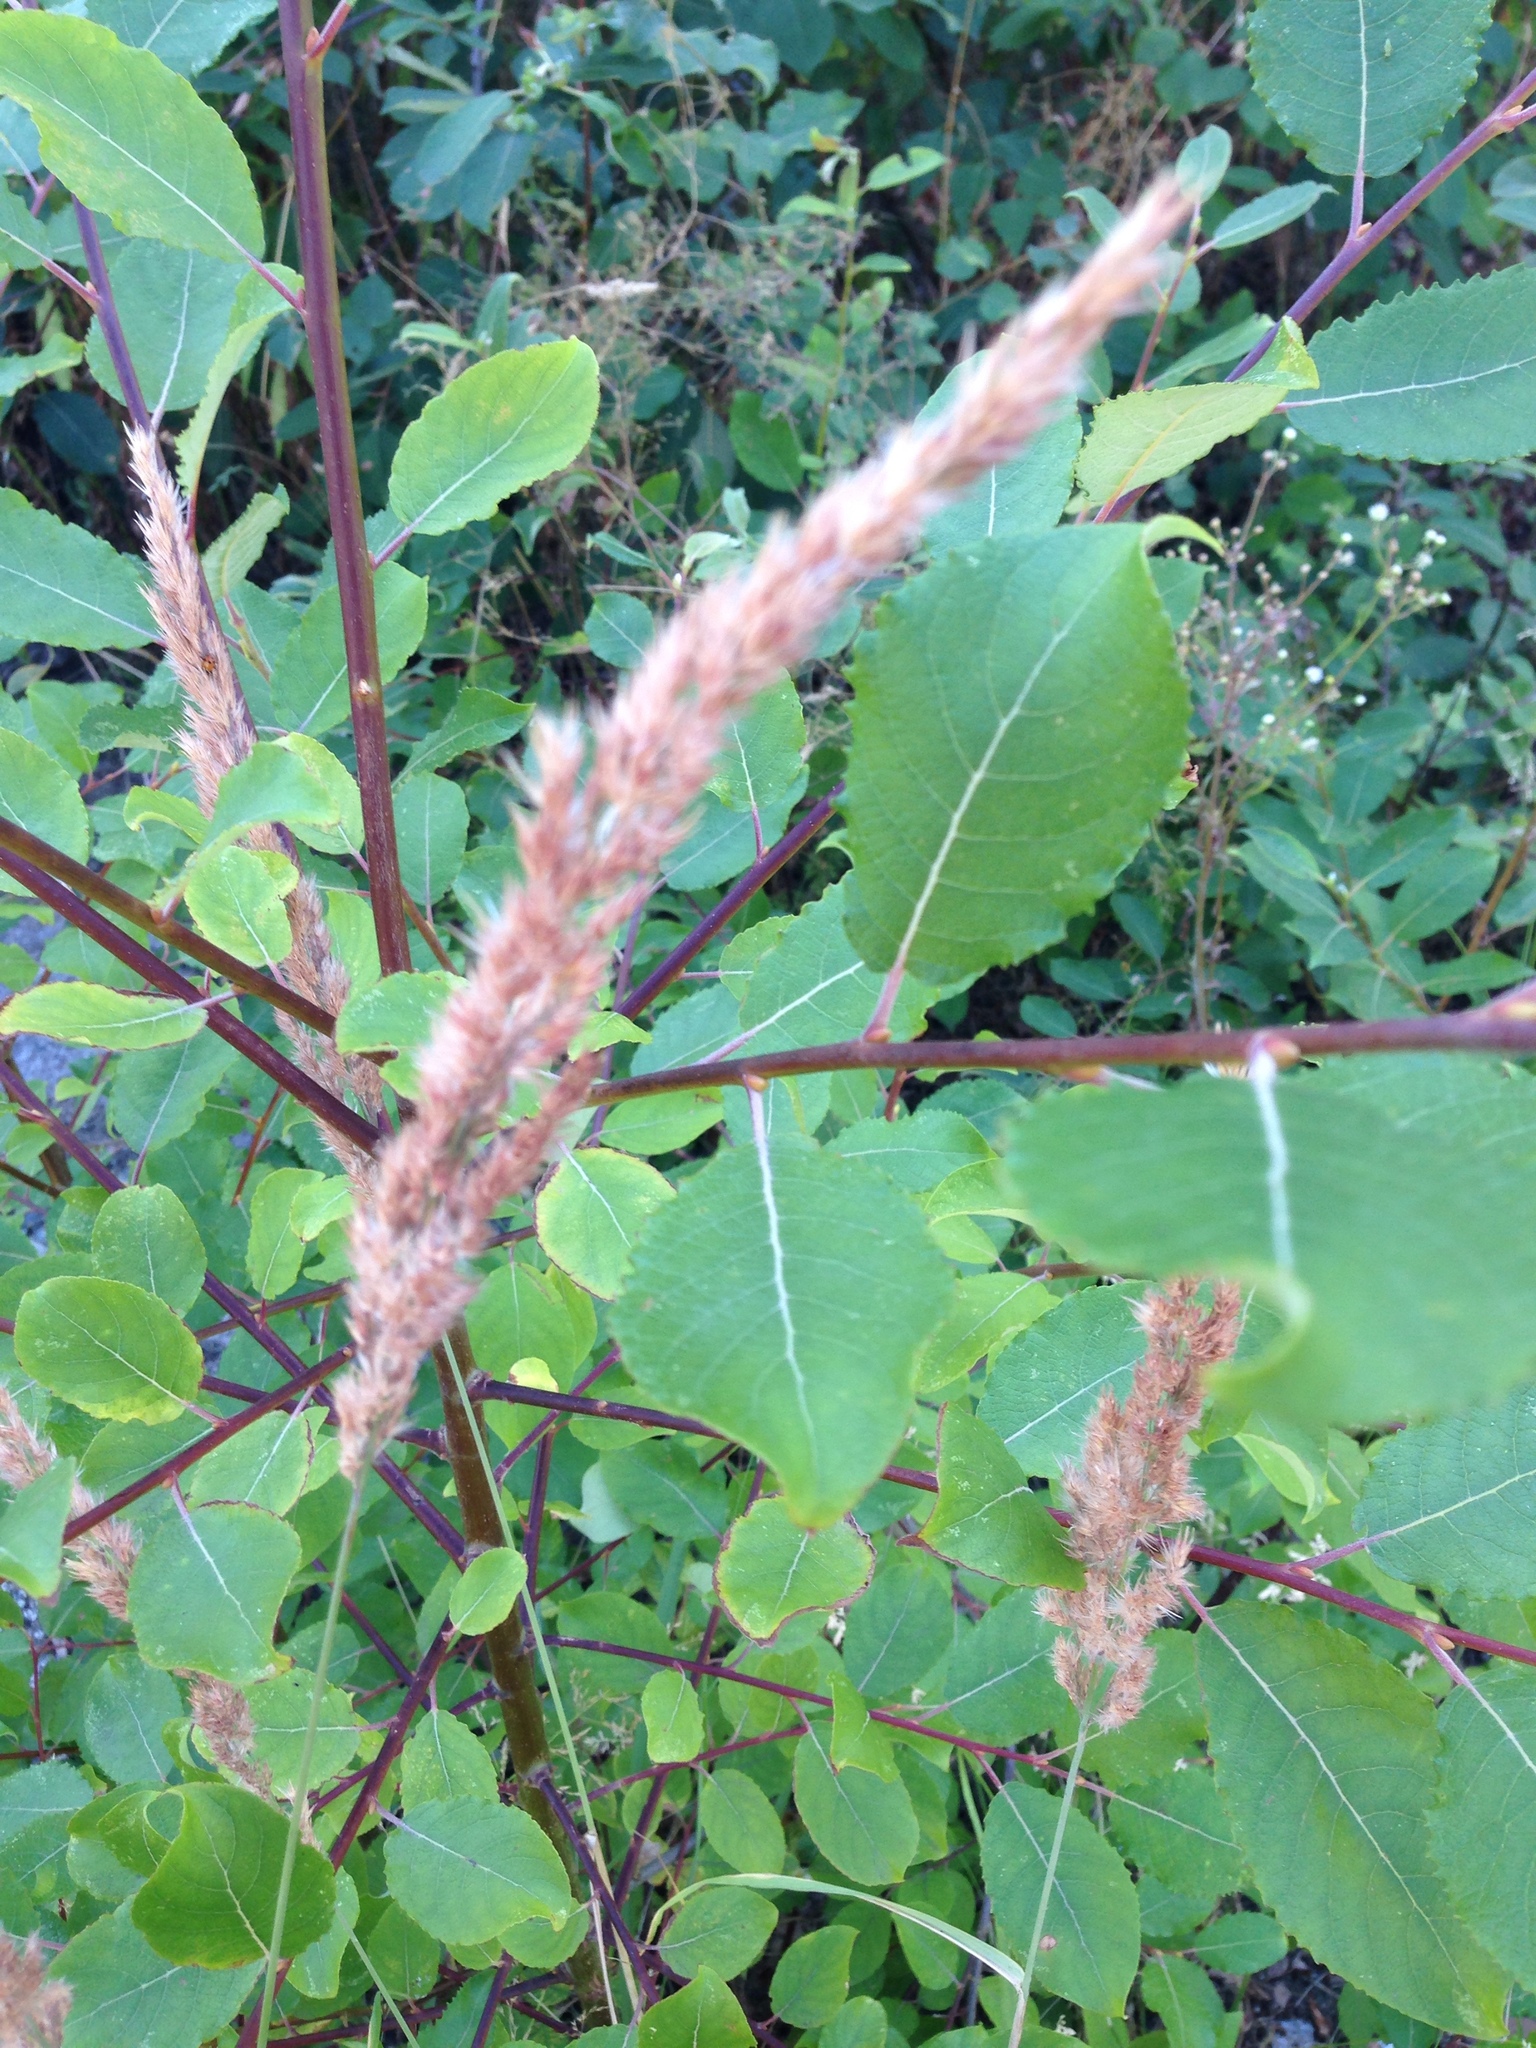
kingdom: Plantae
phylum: Tracheophyta
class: Liliopsida
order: Poales
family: Poaceae
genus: Calamagrostis
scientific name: Calamagrostis epigejos
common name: Wood small-reed
